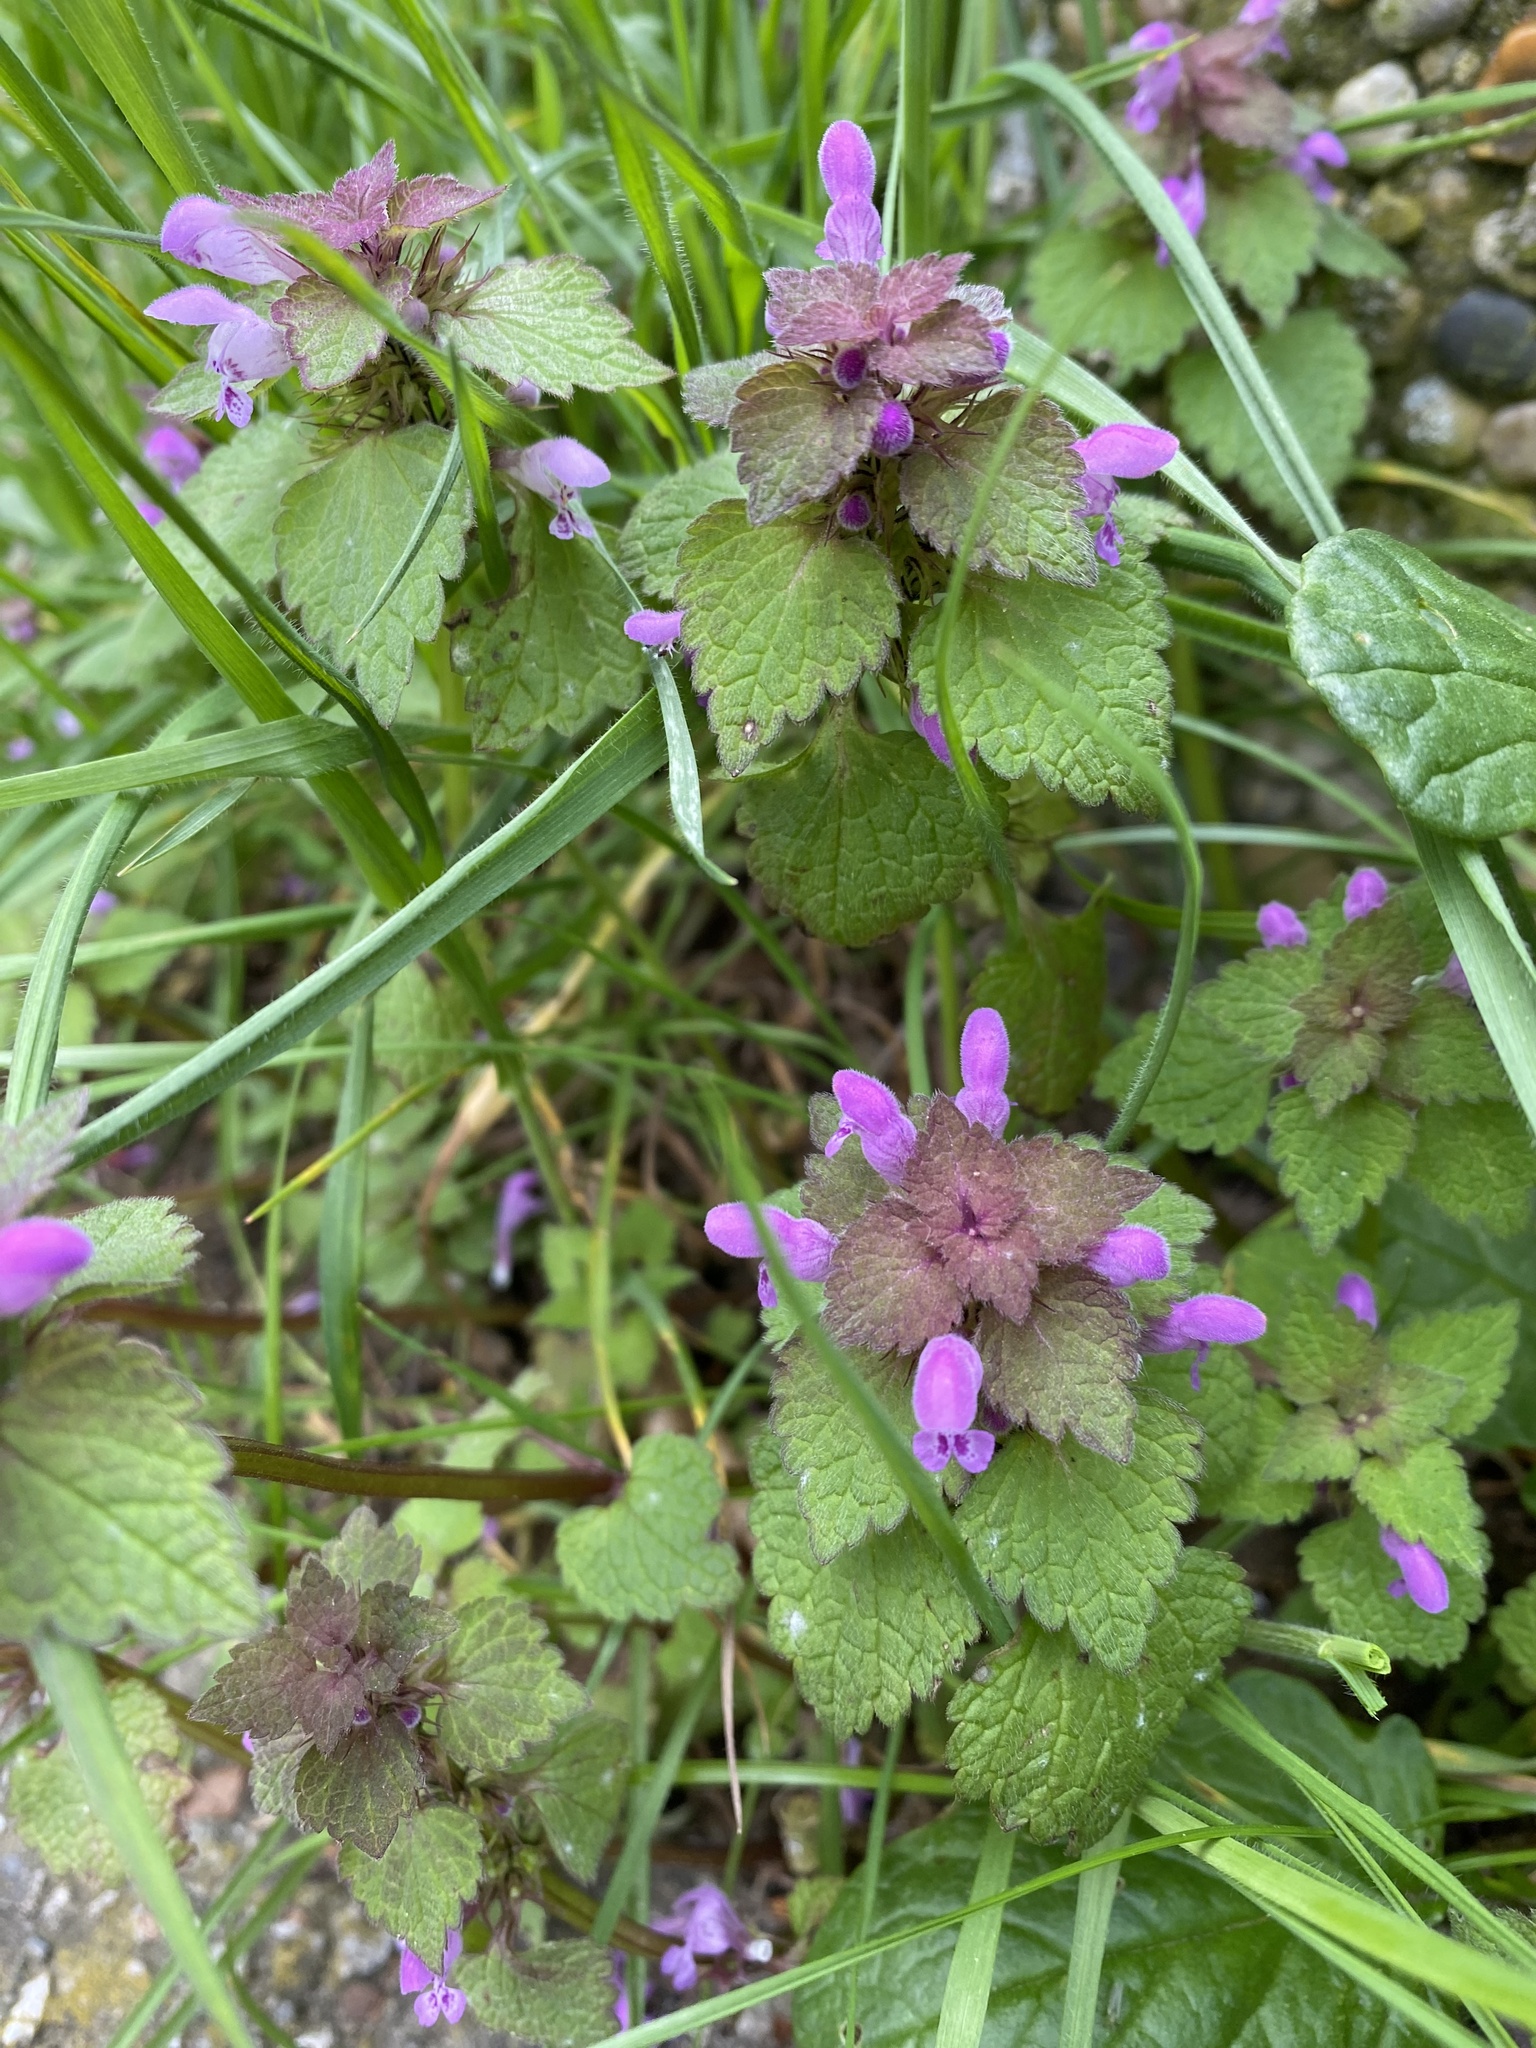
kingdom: Plantae
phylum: Tracheophyta
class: Magnoliopsida
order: Lamiales
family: Lamiaceae
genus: Lamium
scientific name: Lamium purpureum
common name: Red dead-nettle
